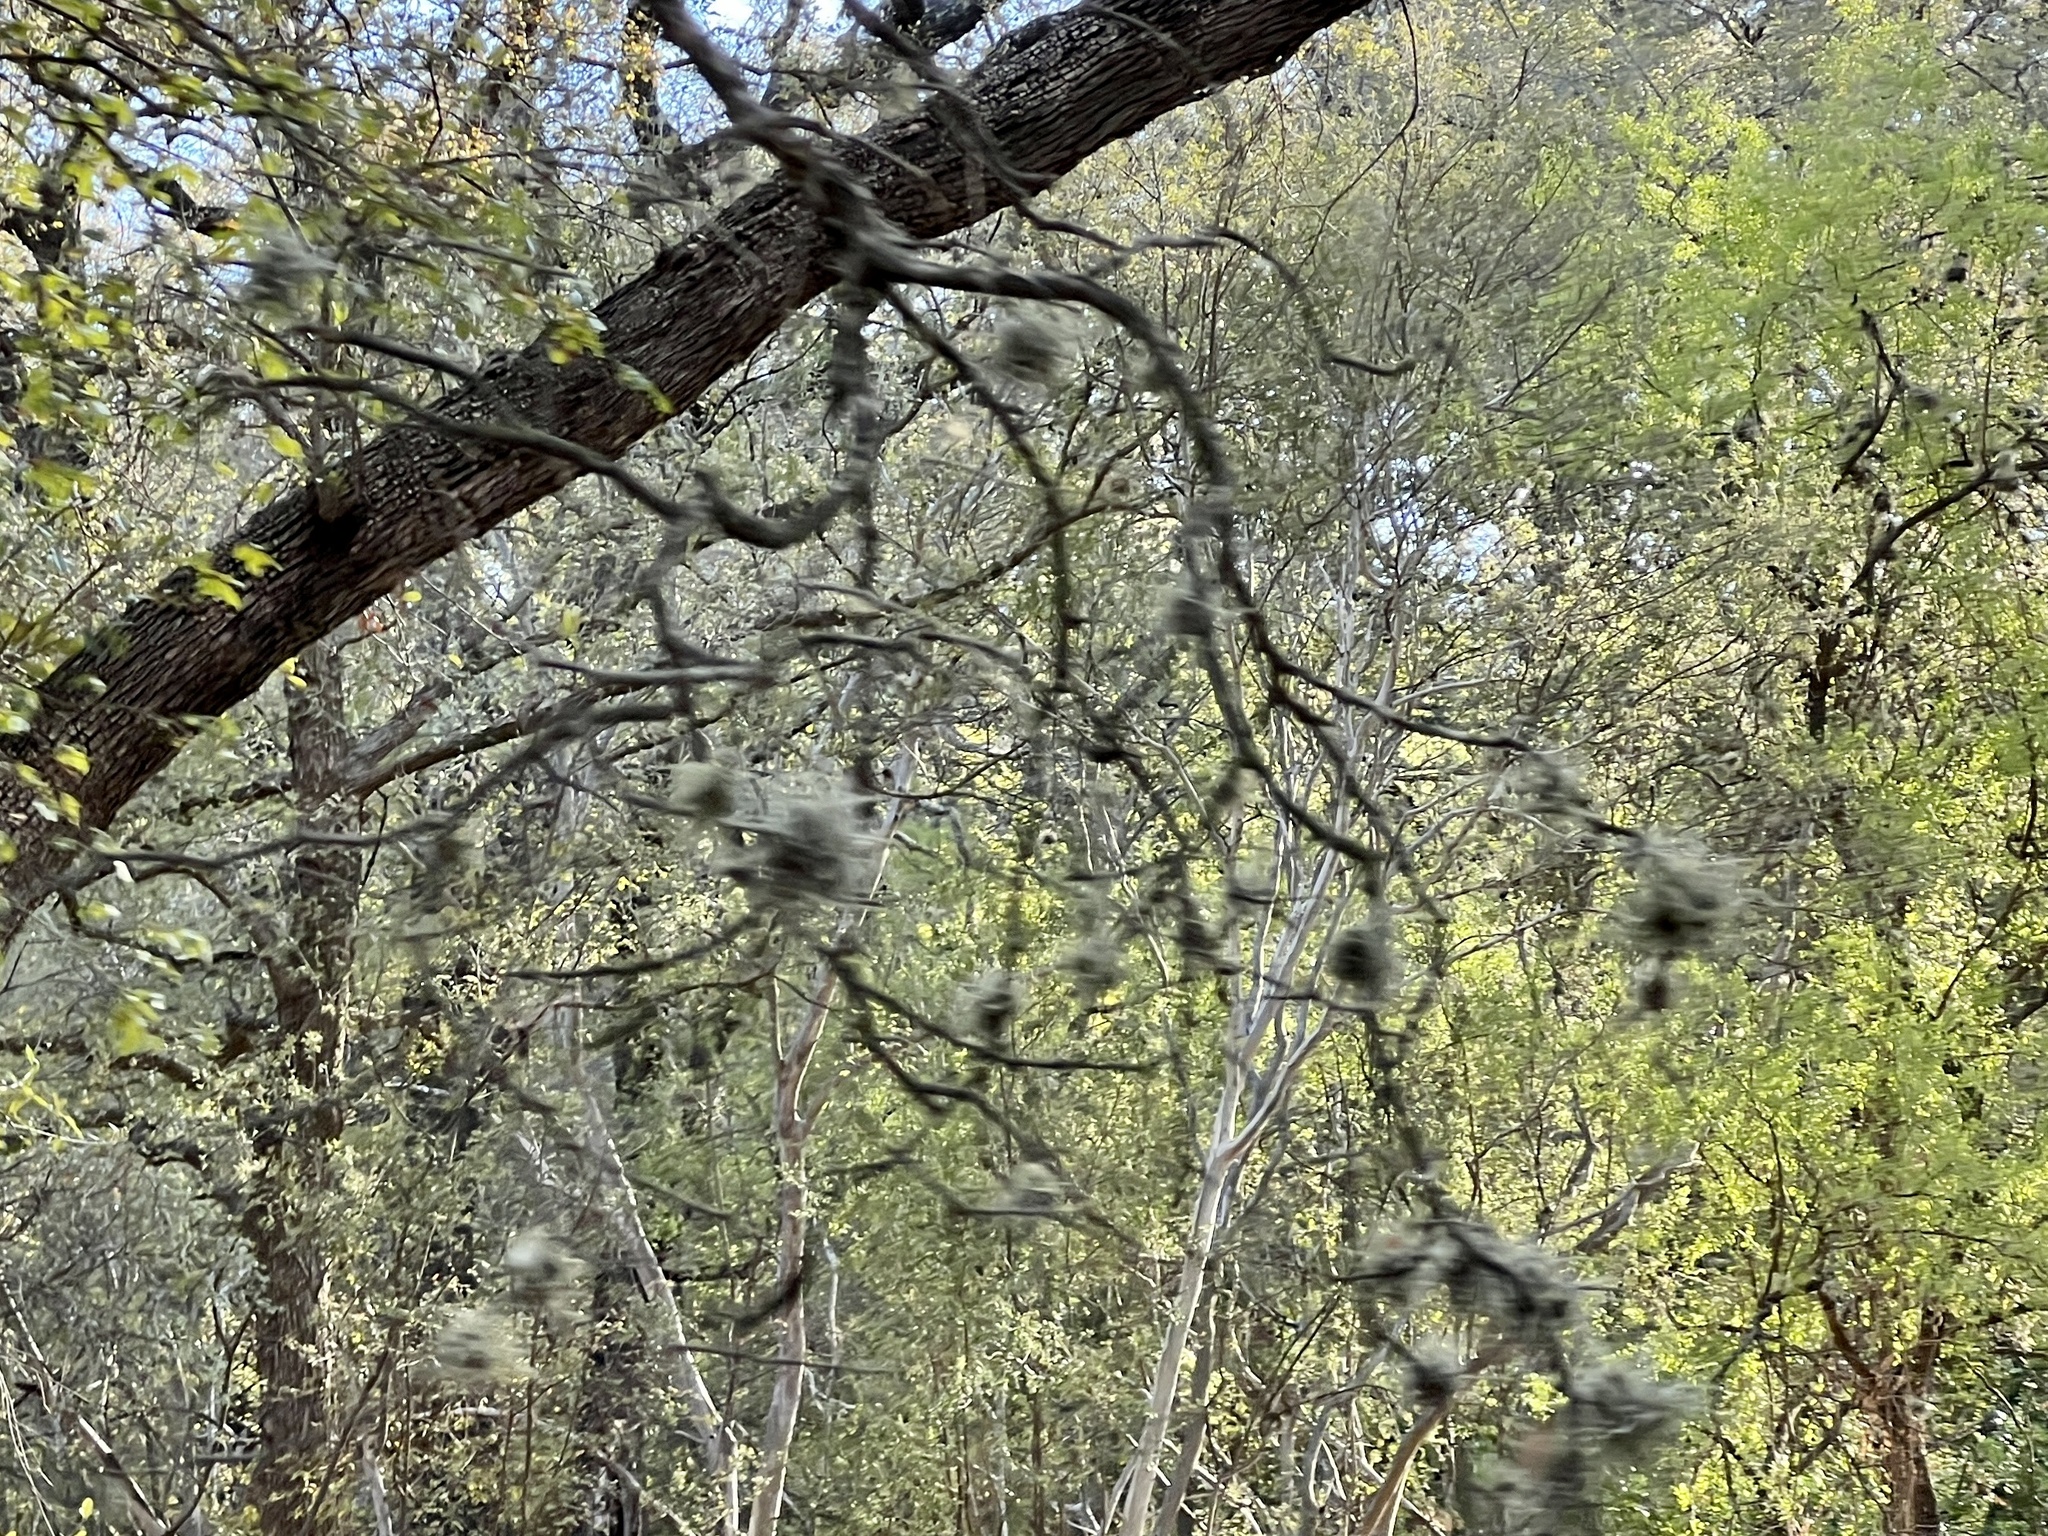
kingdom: Plantae
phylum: Tracheophyta
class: Liliopsida
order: Poales
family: Bromeliaceae
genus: Tillandsia
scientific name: Tillandsia recurvata
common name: Small ballmoss
